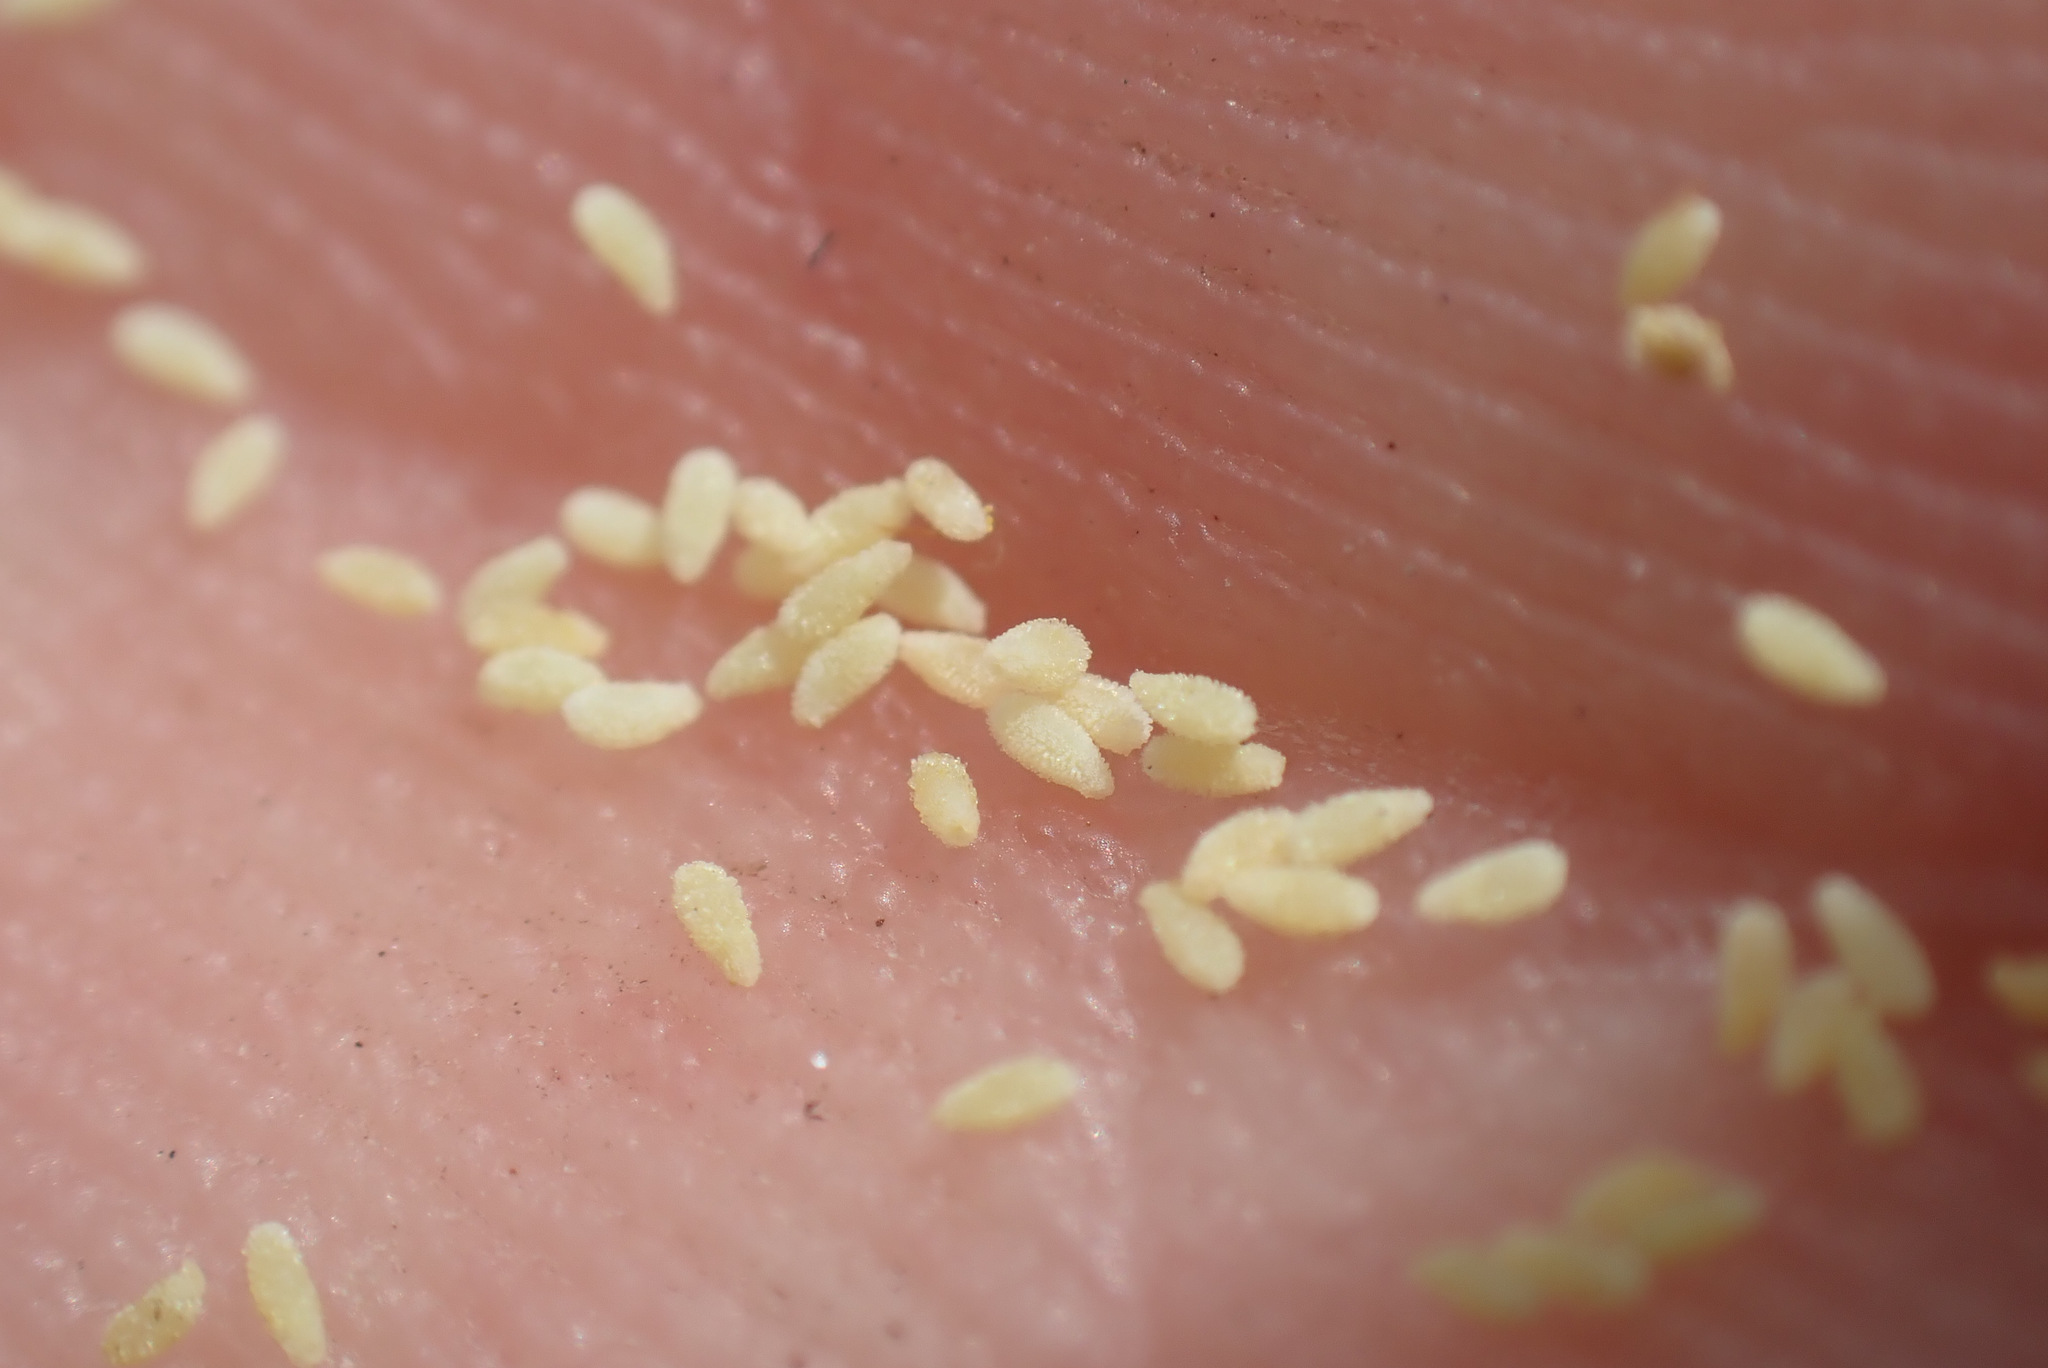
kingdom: Plantae
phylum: Tracheophyta
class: Magnoliopsida
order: Caryophyllales
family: Droseraceae
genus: Drosera
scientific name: Drosera intermedia
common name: Oblong-leaved sundew
